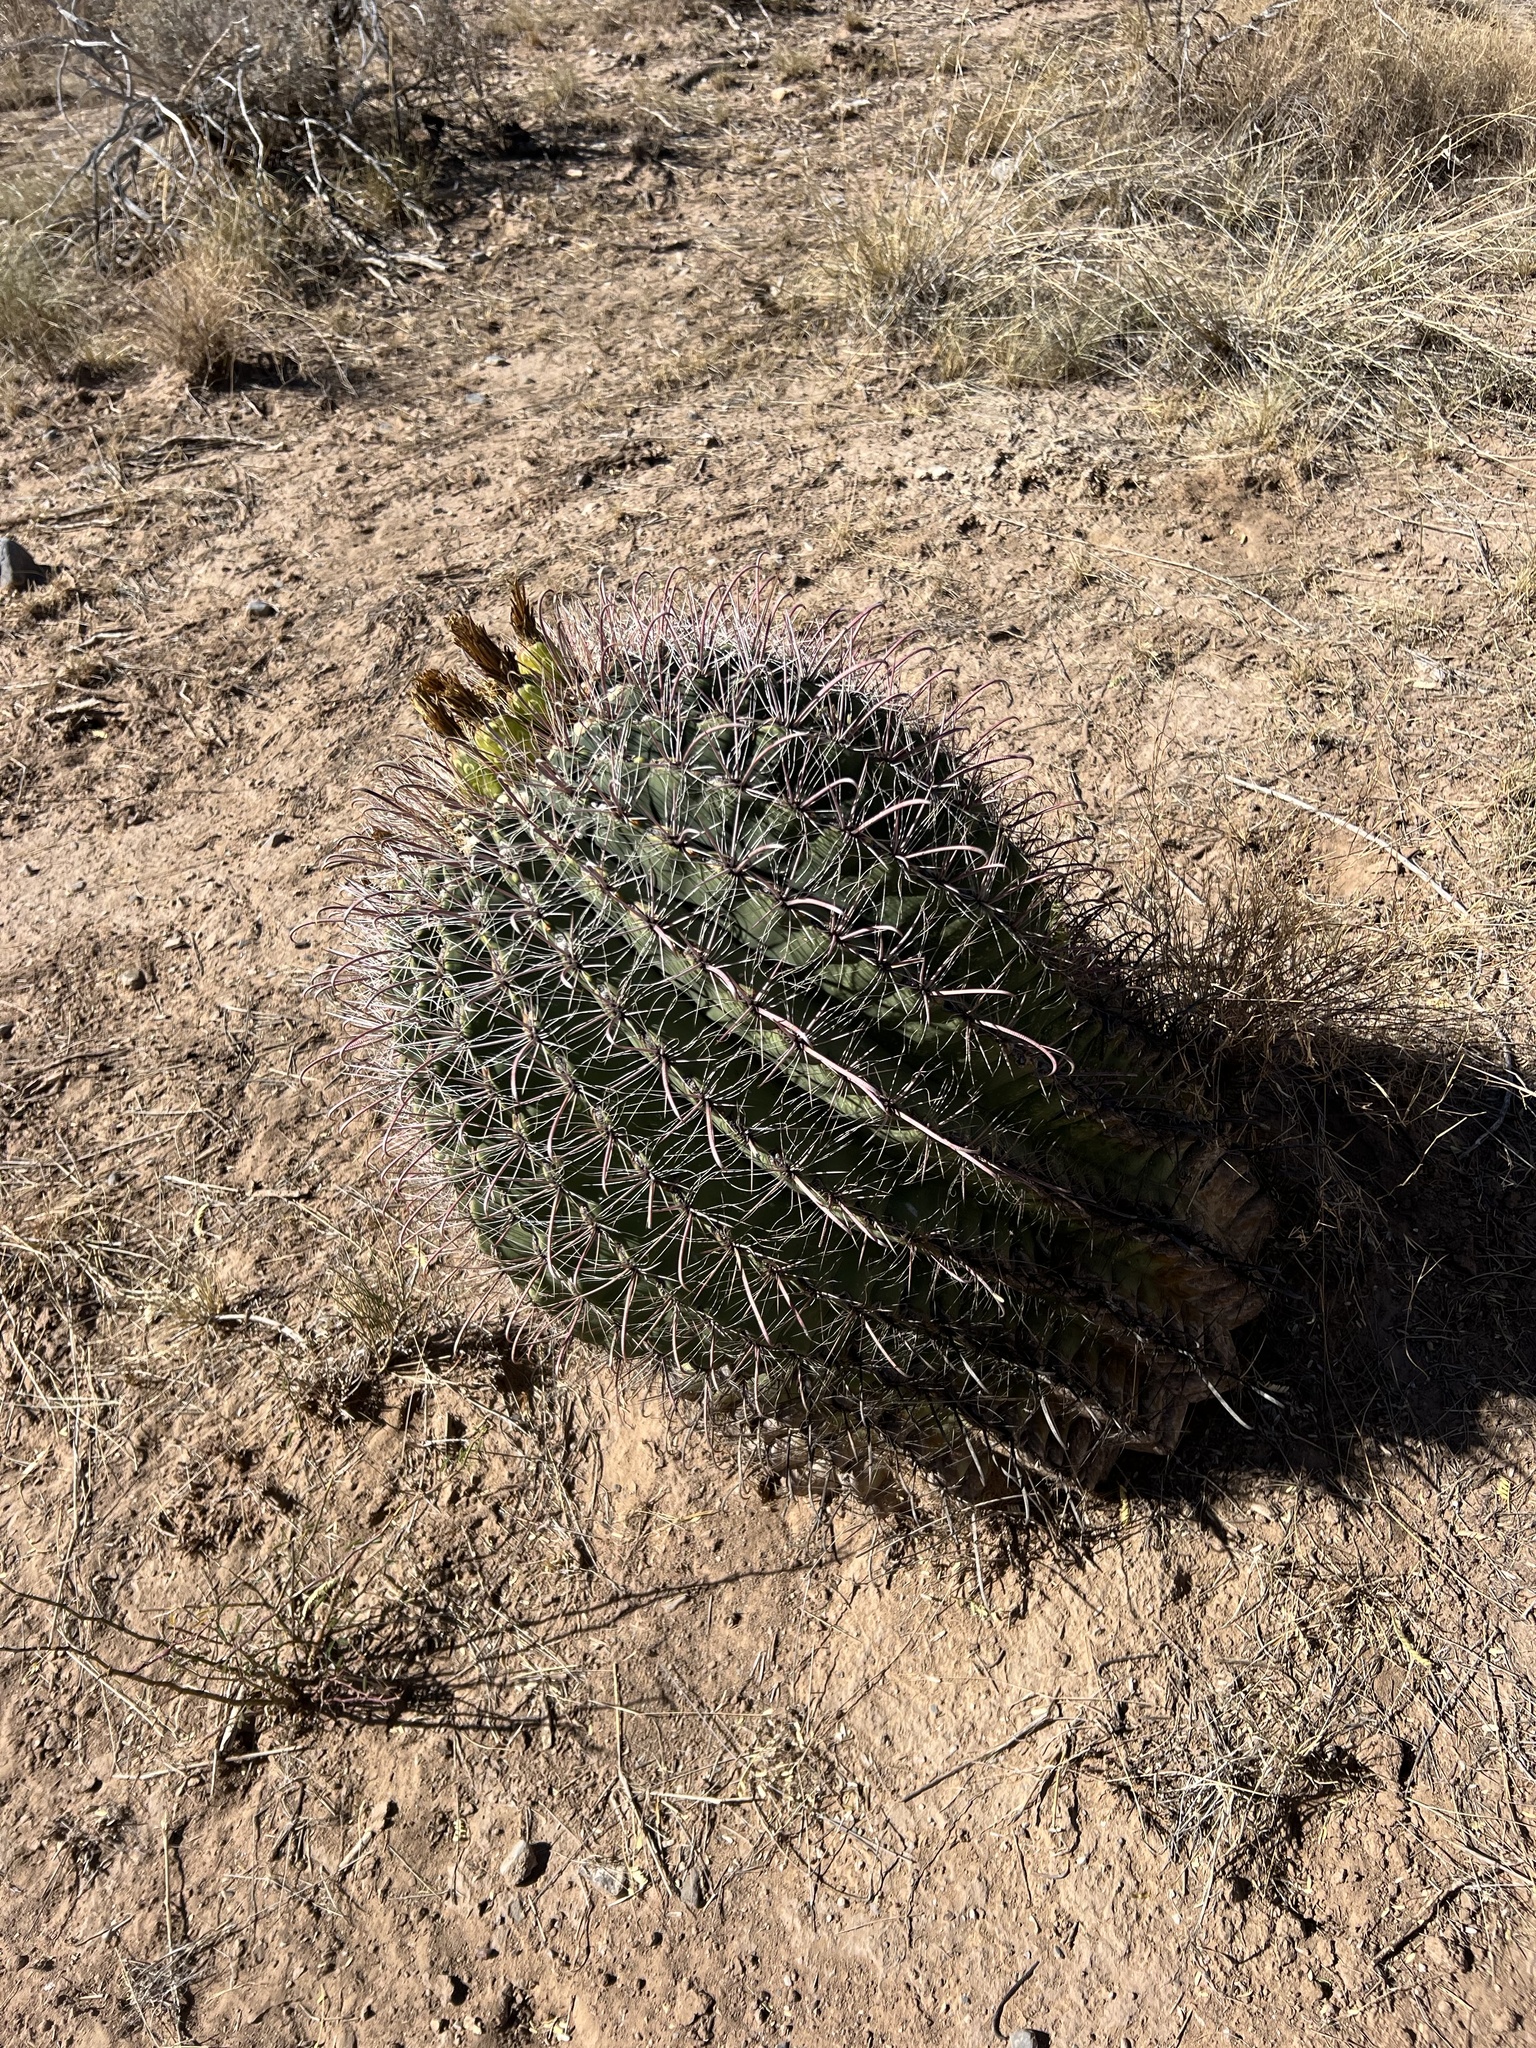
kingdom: Plantae
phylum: Tracheophyta
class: Magnoliopsida
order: Caryophyllales
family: Cactaceae
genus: Ferocactus
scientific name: Ferocactus wislizeni
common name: Candy barrel cactus
